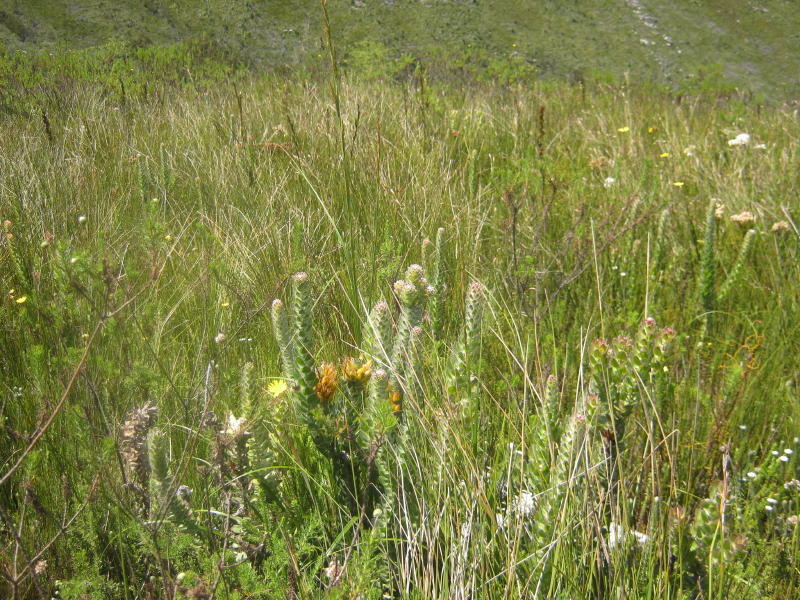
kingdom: Plantae
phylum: Tracheophyta
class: Magnoliopsida
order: Proteales
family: Proteaceae
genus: Mimetes
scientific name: Mimetes pauciflora
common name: Three-flowered pagoda
